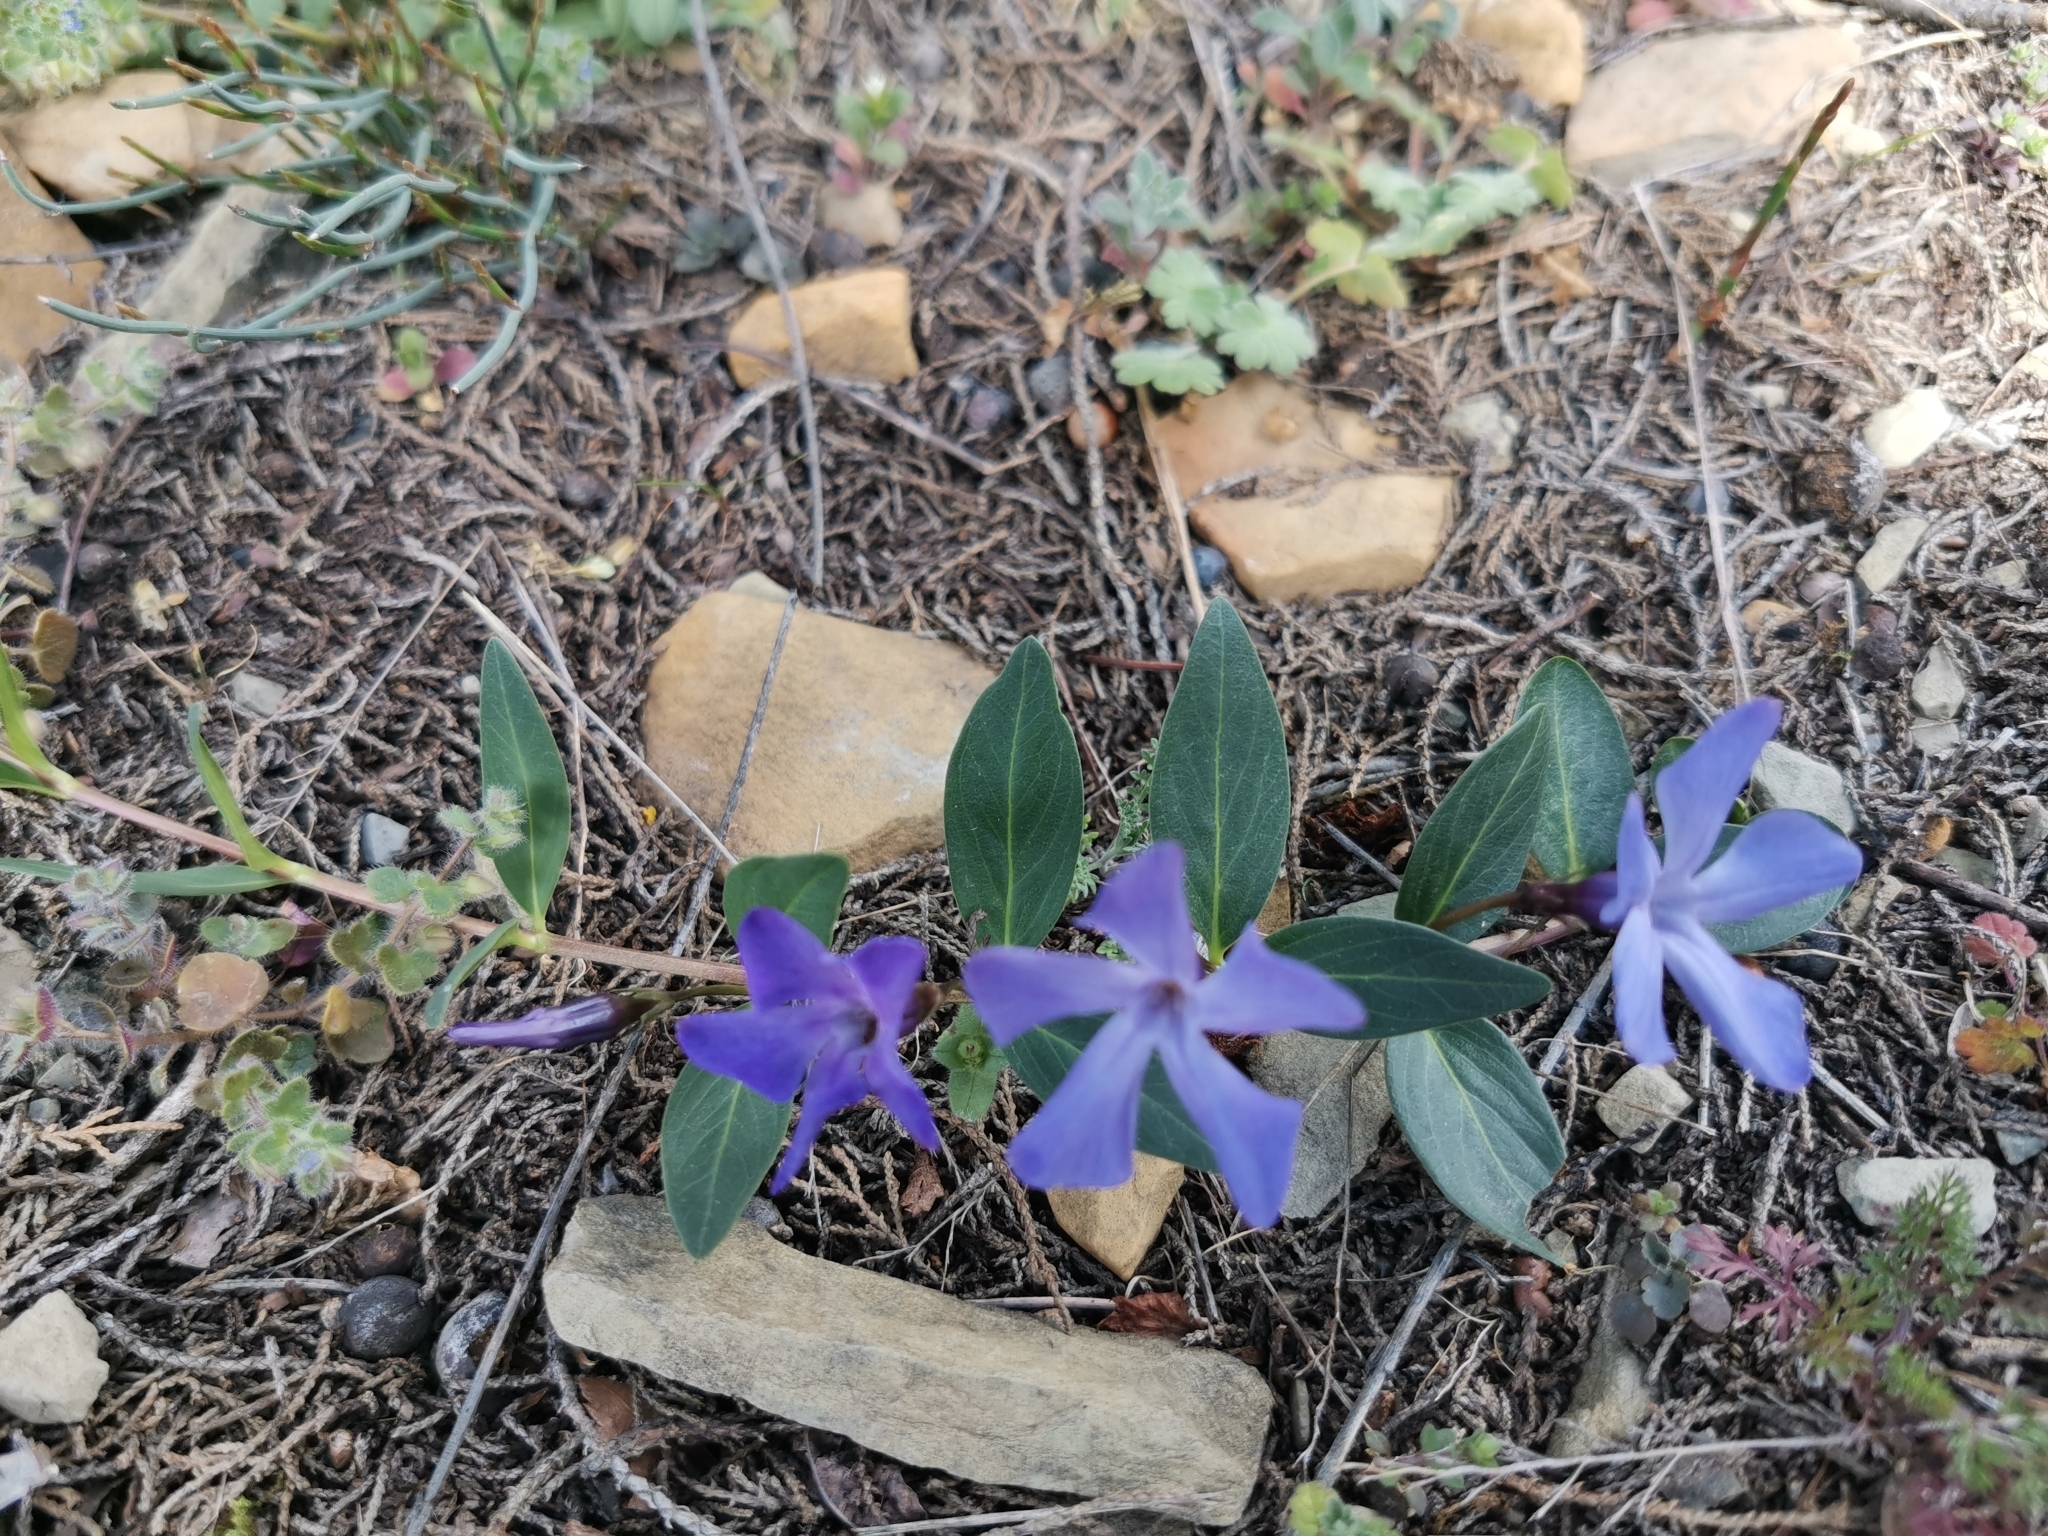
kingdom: Plantae
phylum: Tracheophyta
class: Magnoliopsida
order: Gentianales
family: Apocynaceae
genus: Vinca
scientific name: Vinca herbacea
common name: Herbaceous periwinkle
